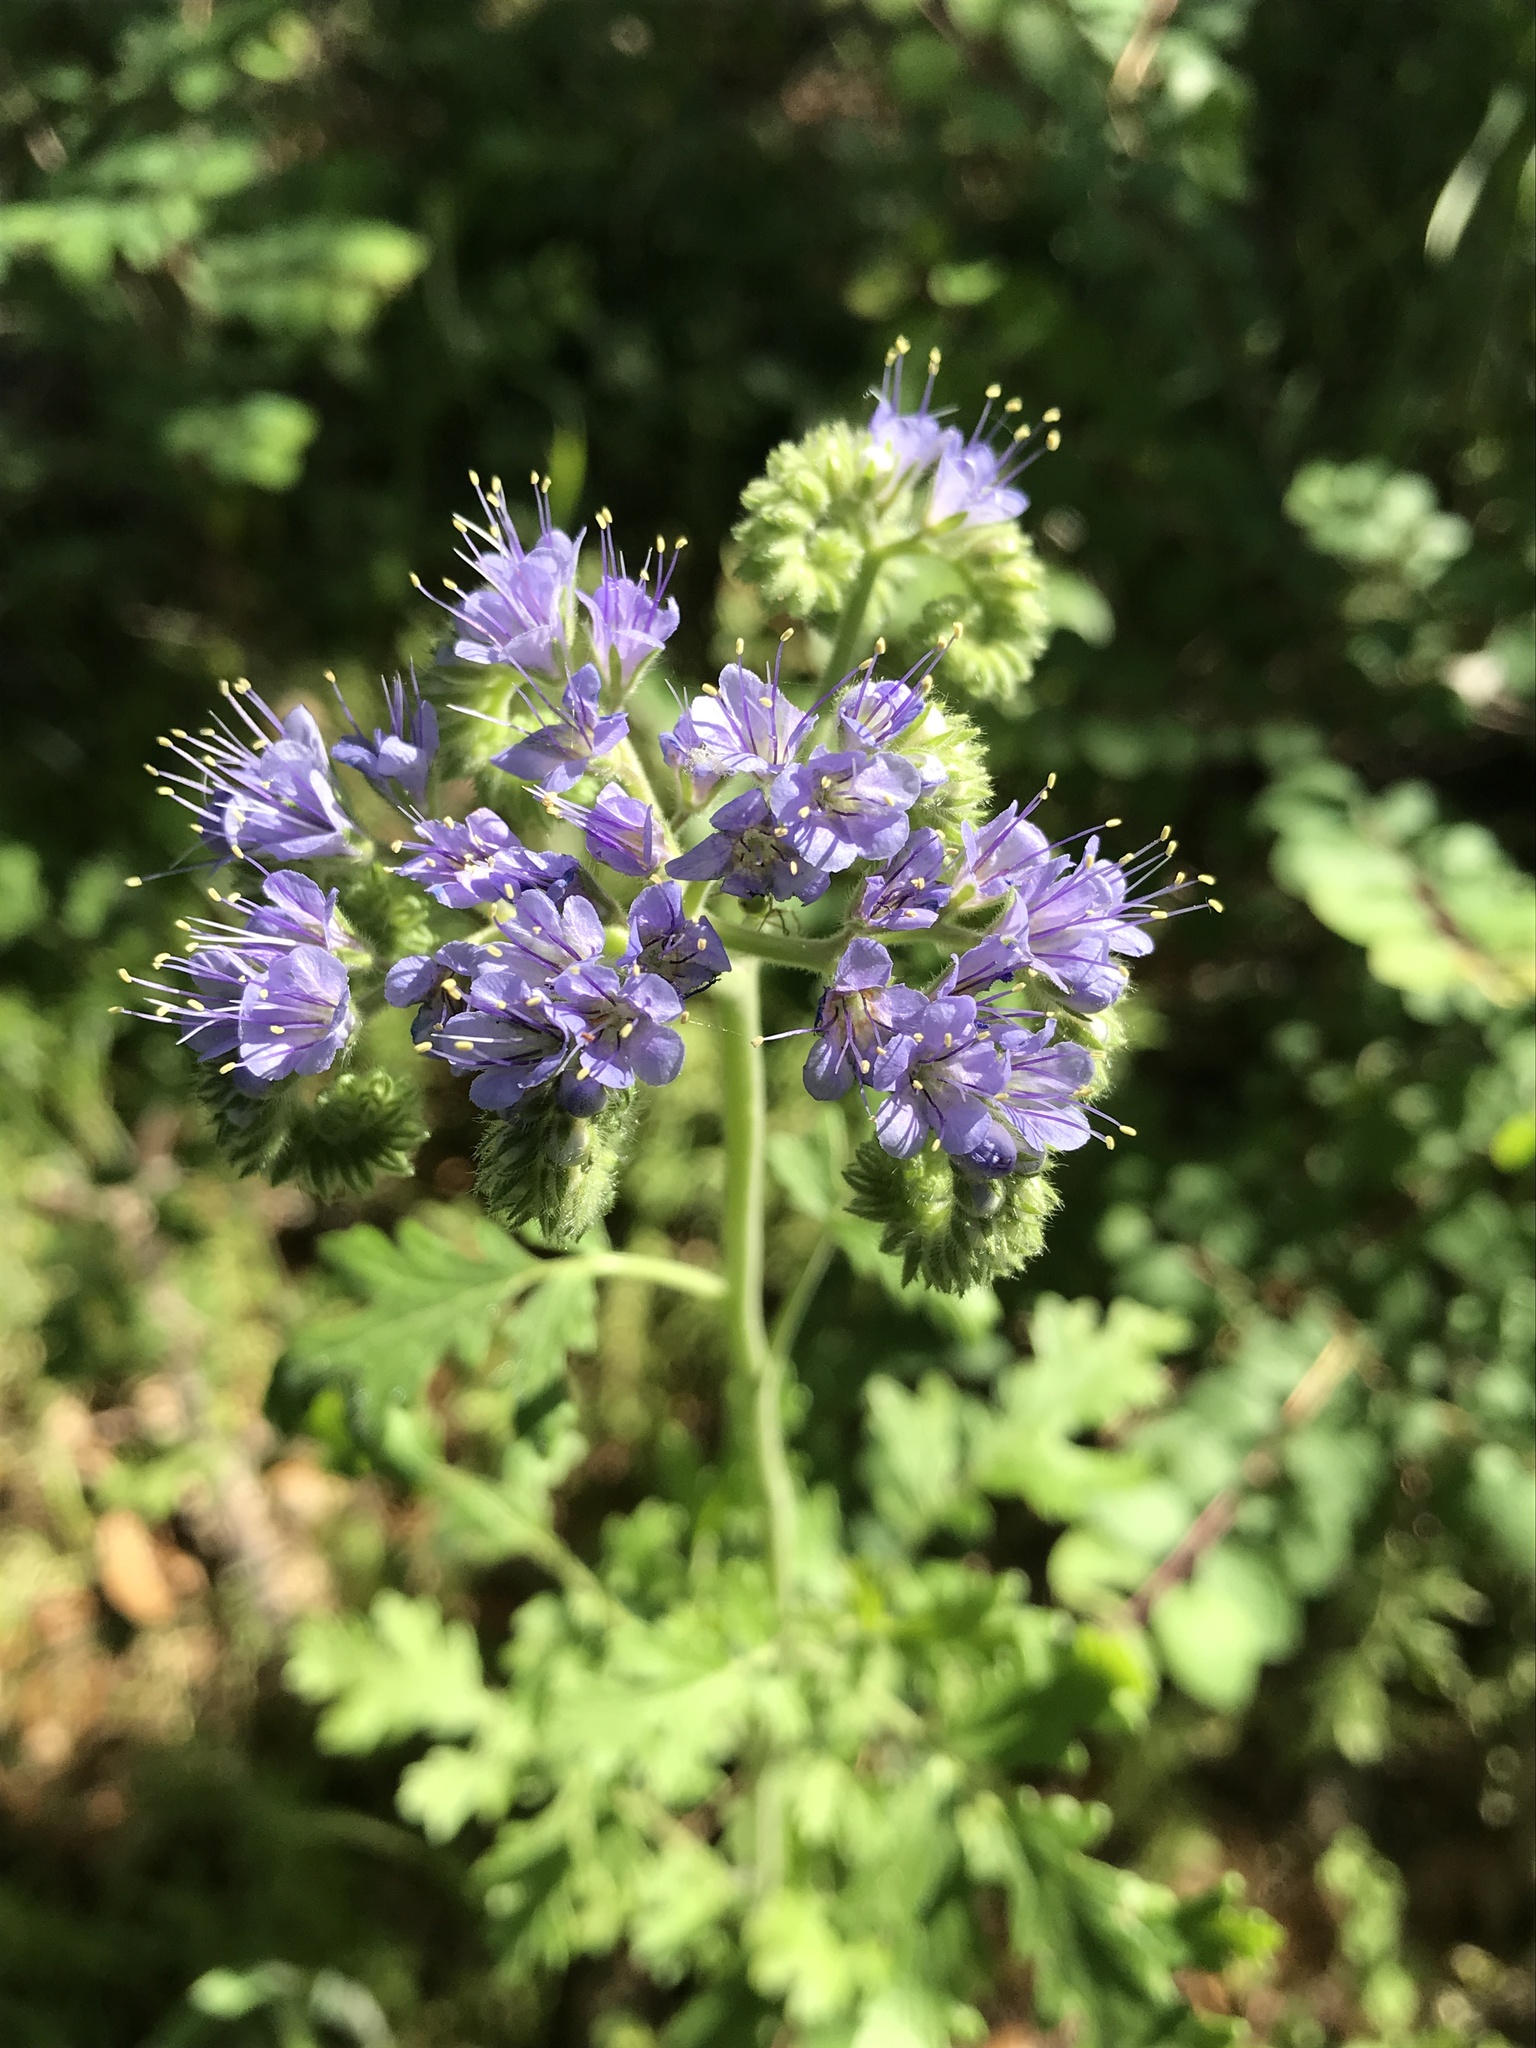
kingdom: Plantae
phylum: Tracheophyta
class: Magnoliopsida
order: Boraginales
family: Hydrophyllaceae
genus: Phacelia
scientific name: Phacelia congesta
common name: Blue curls
